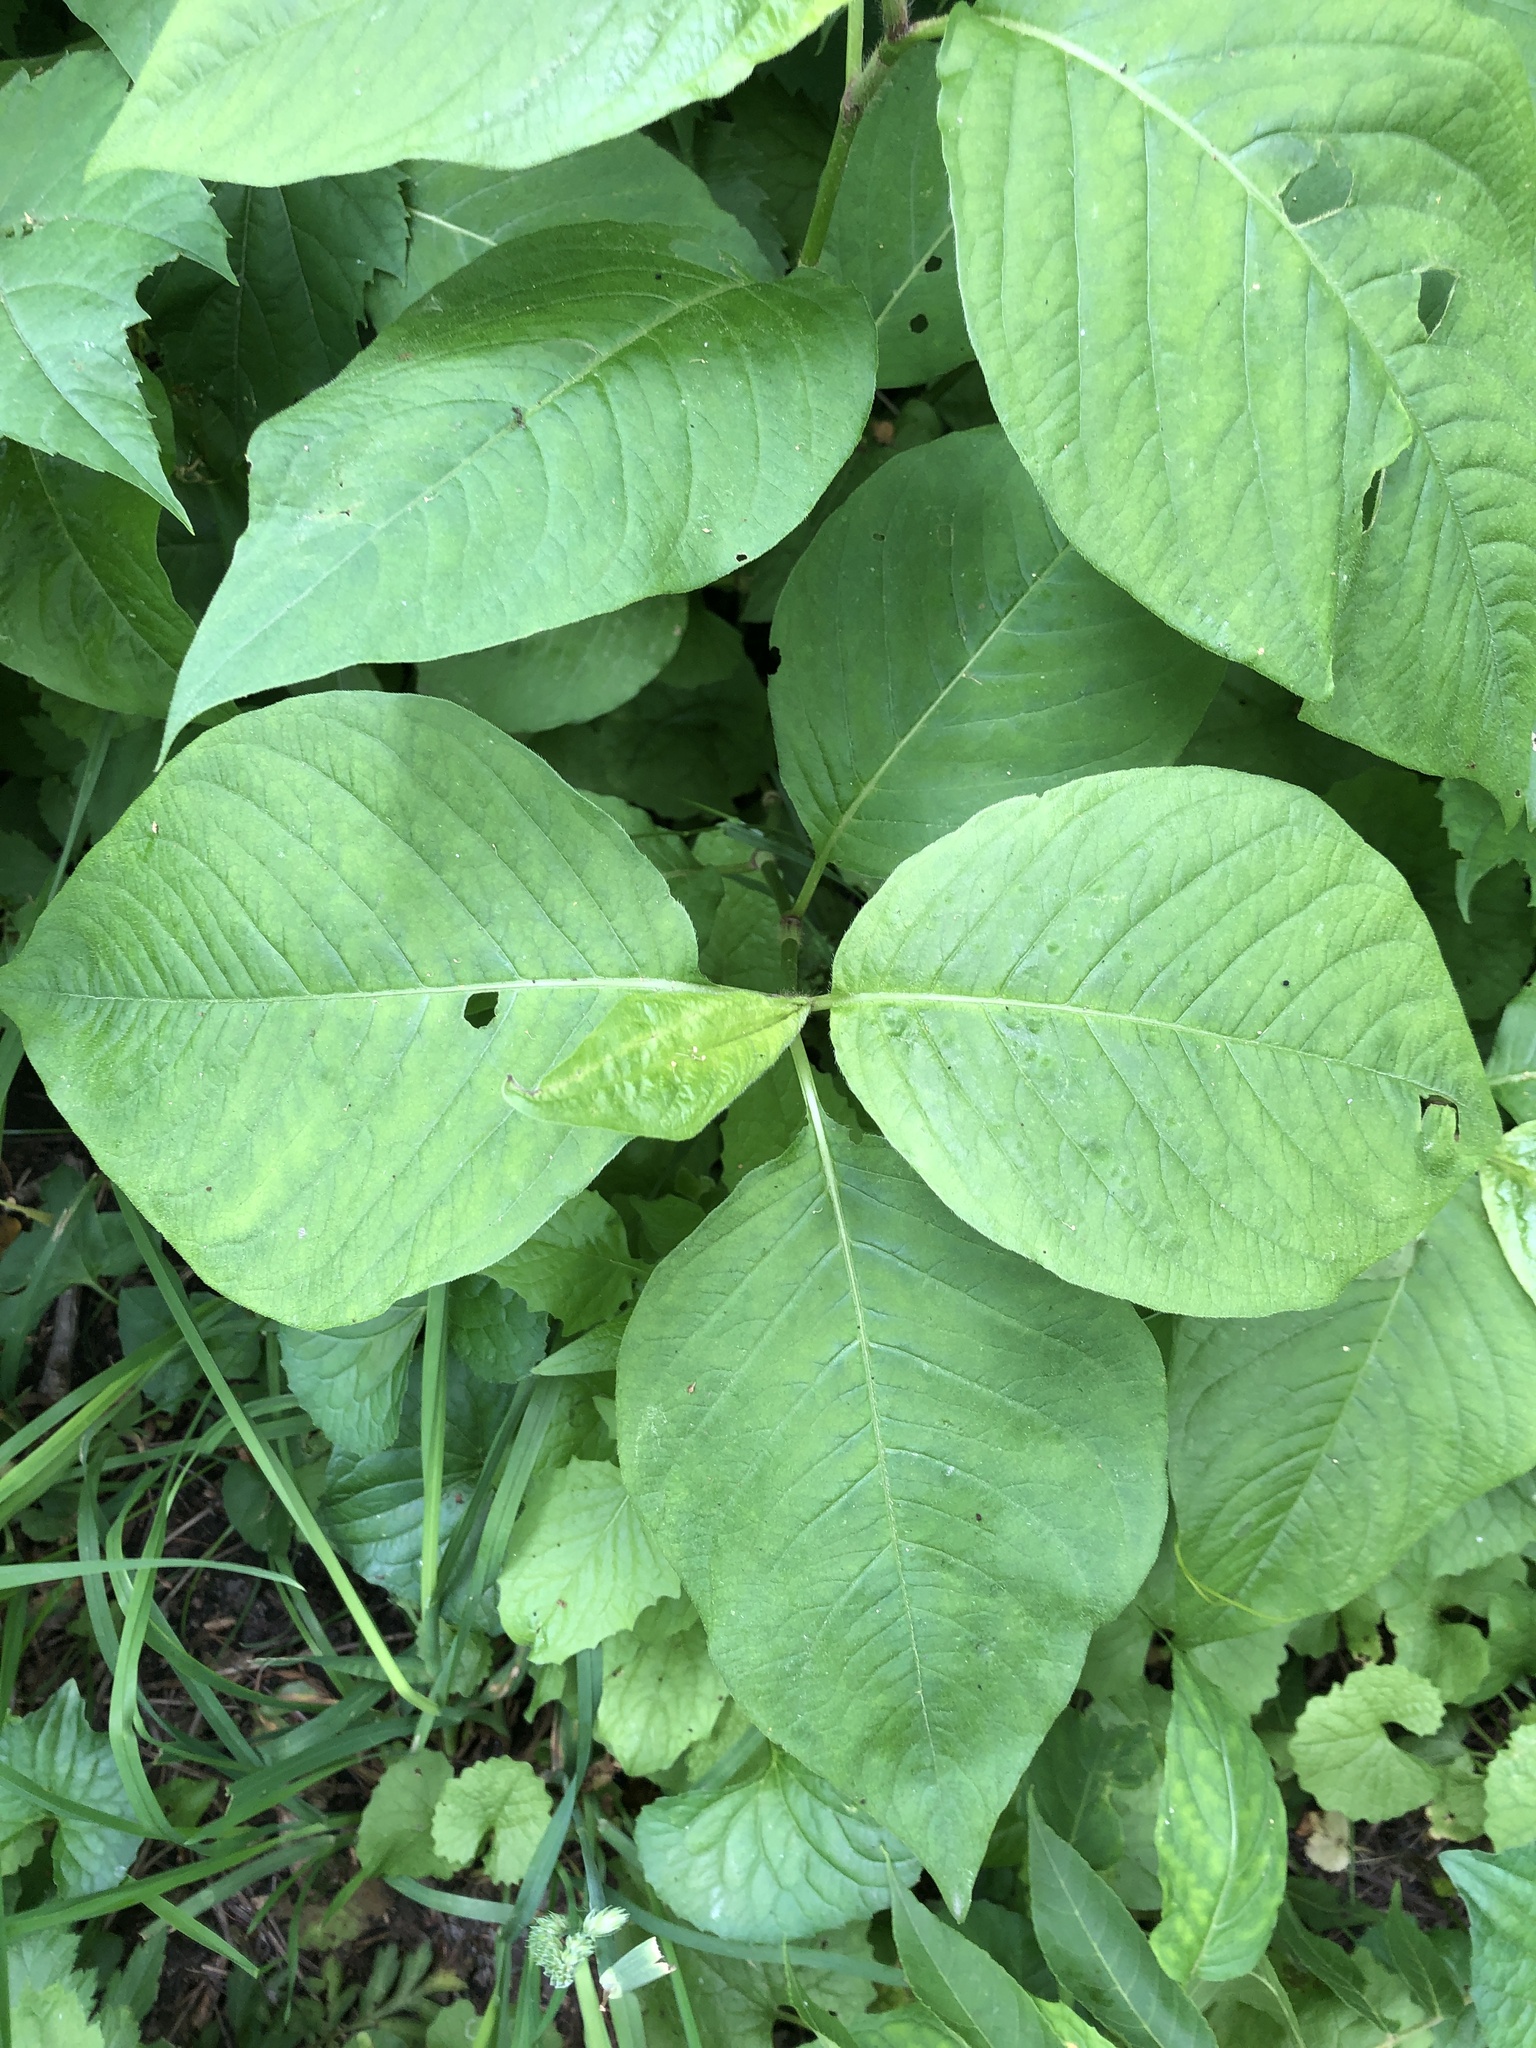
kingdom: Plantae
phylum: Tracheophyta
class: Magnoliopsida
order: Caryophyllales
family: Polygonaceae
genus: Persicaria
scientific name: Persicaria virginiana
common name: Jumpseed
